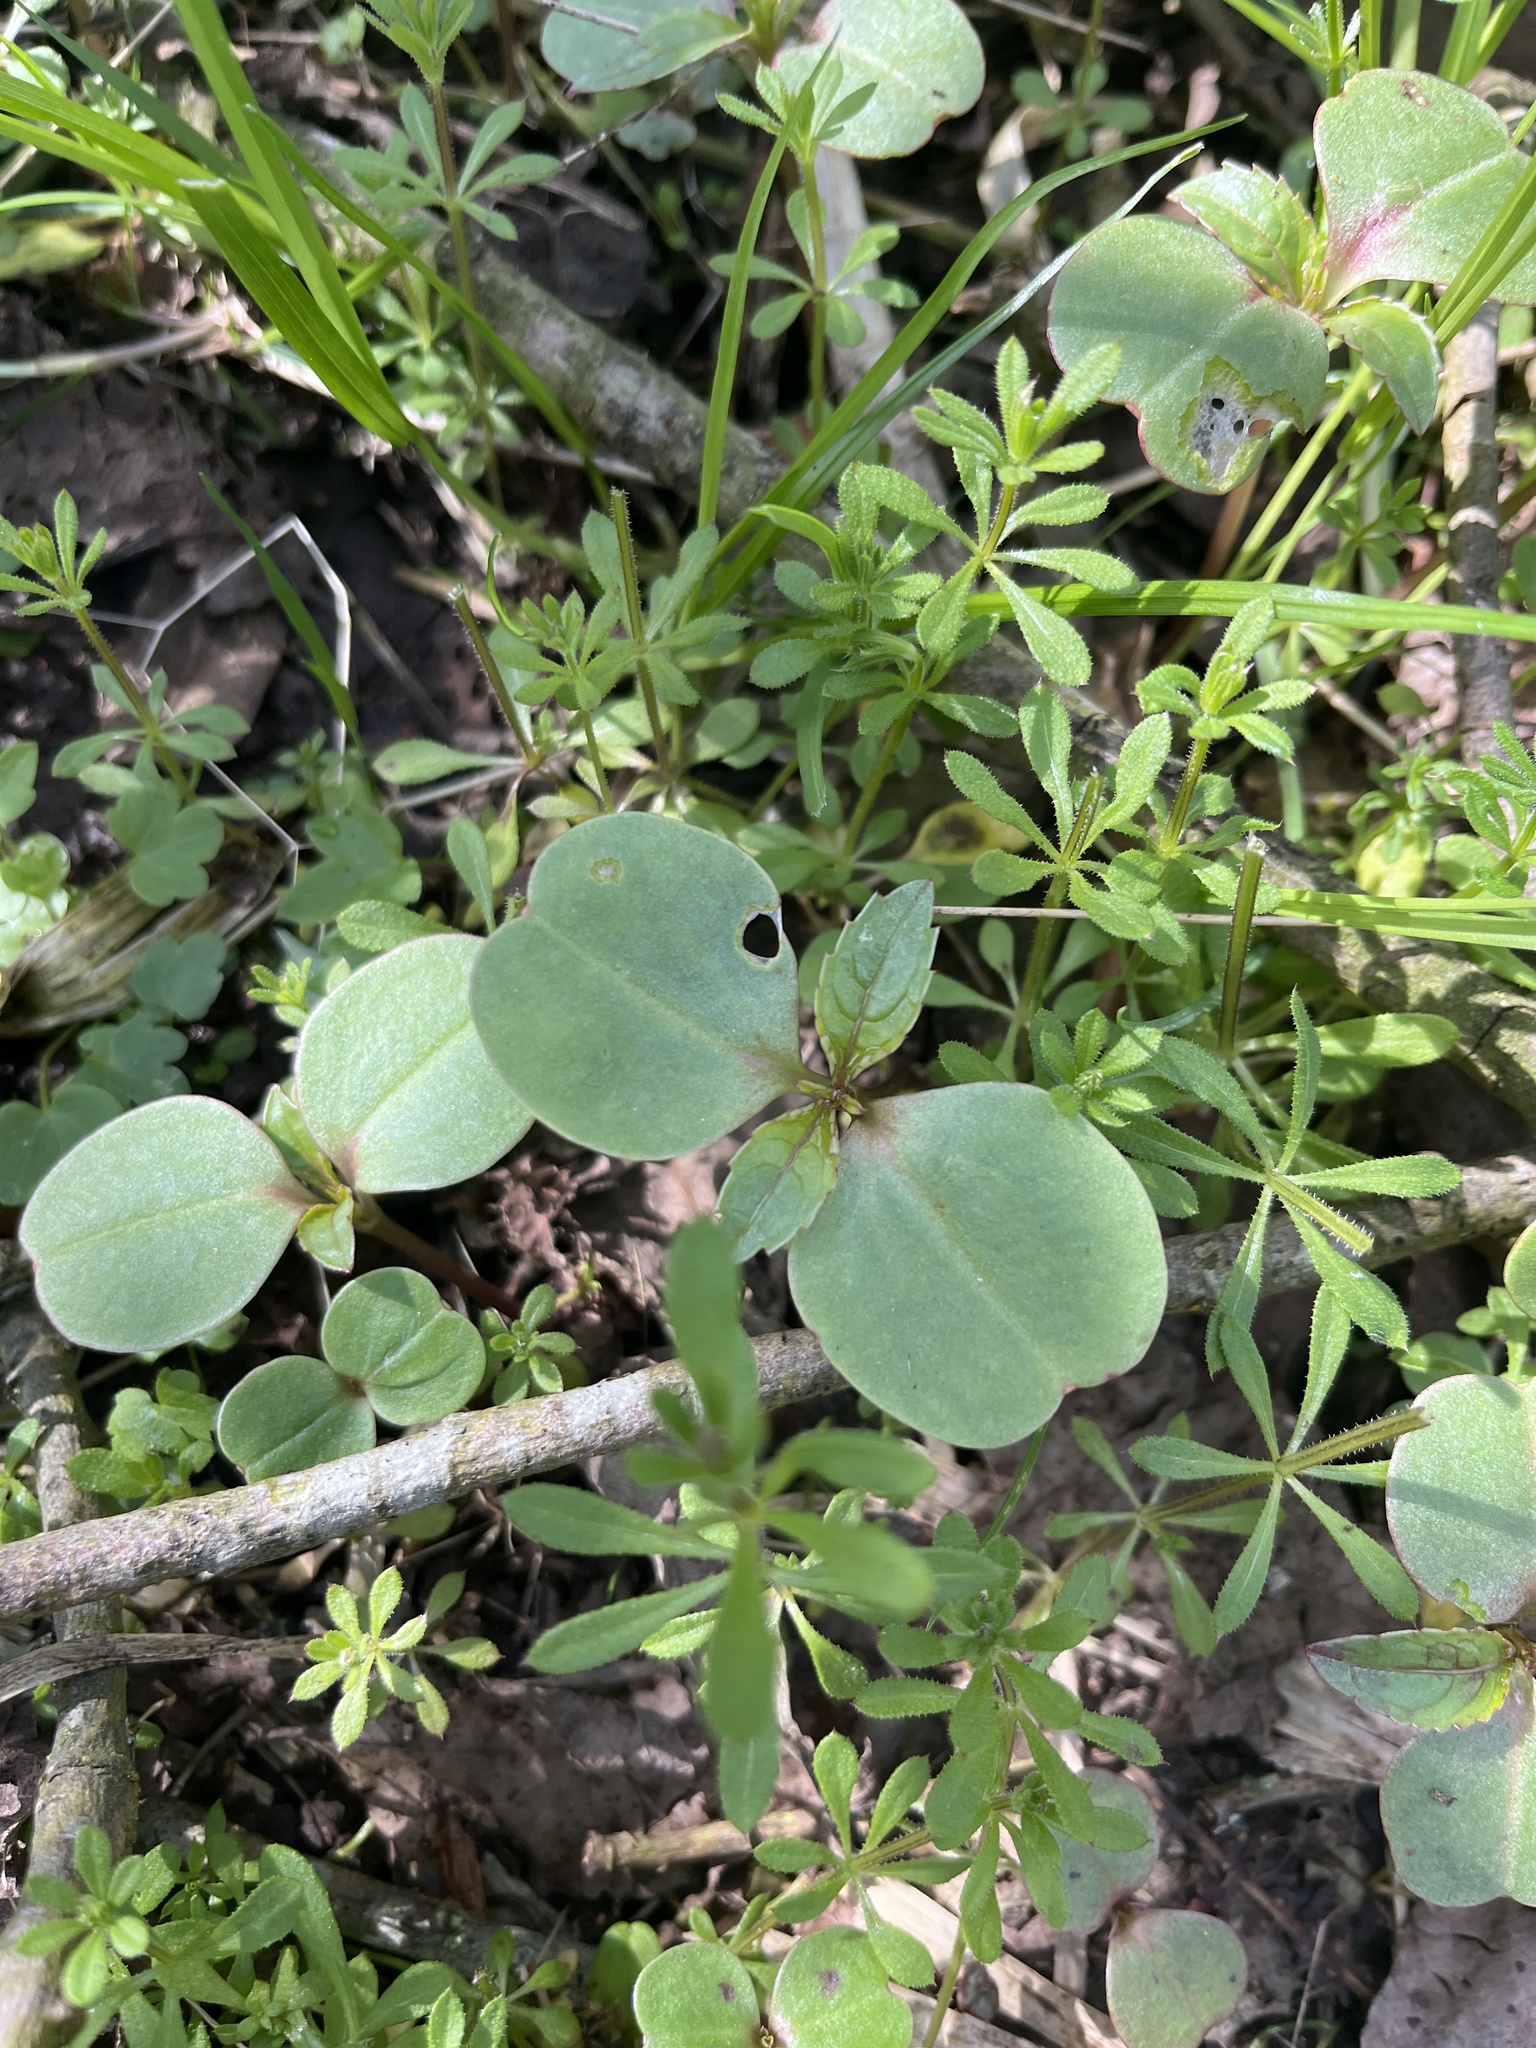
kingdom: Plantae
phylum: Tracheophyta
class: Magnoliopsida
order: Ericales
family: Balsaminaceae
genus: Impatiens
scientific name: Impatiens glandulifera
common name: Himalayan balsam
